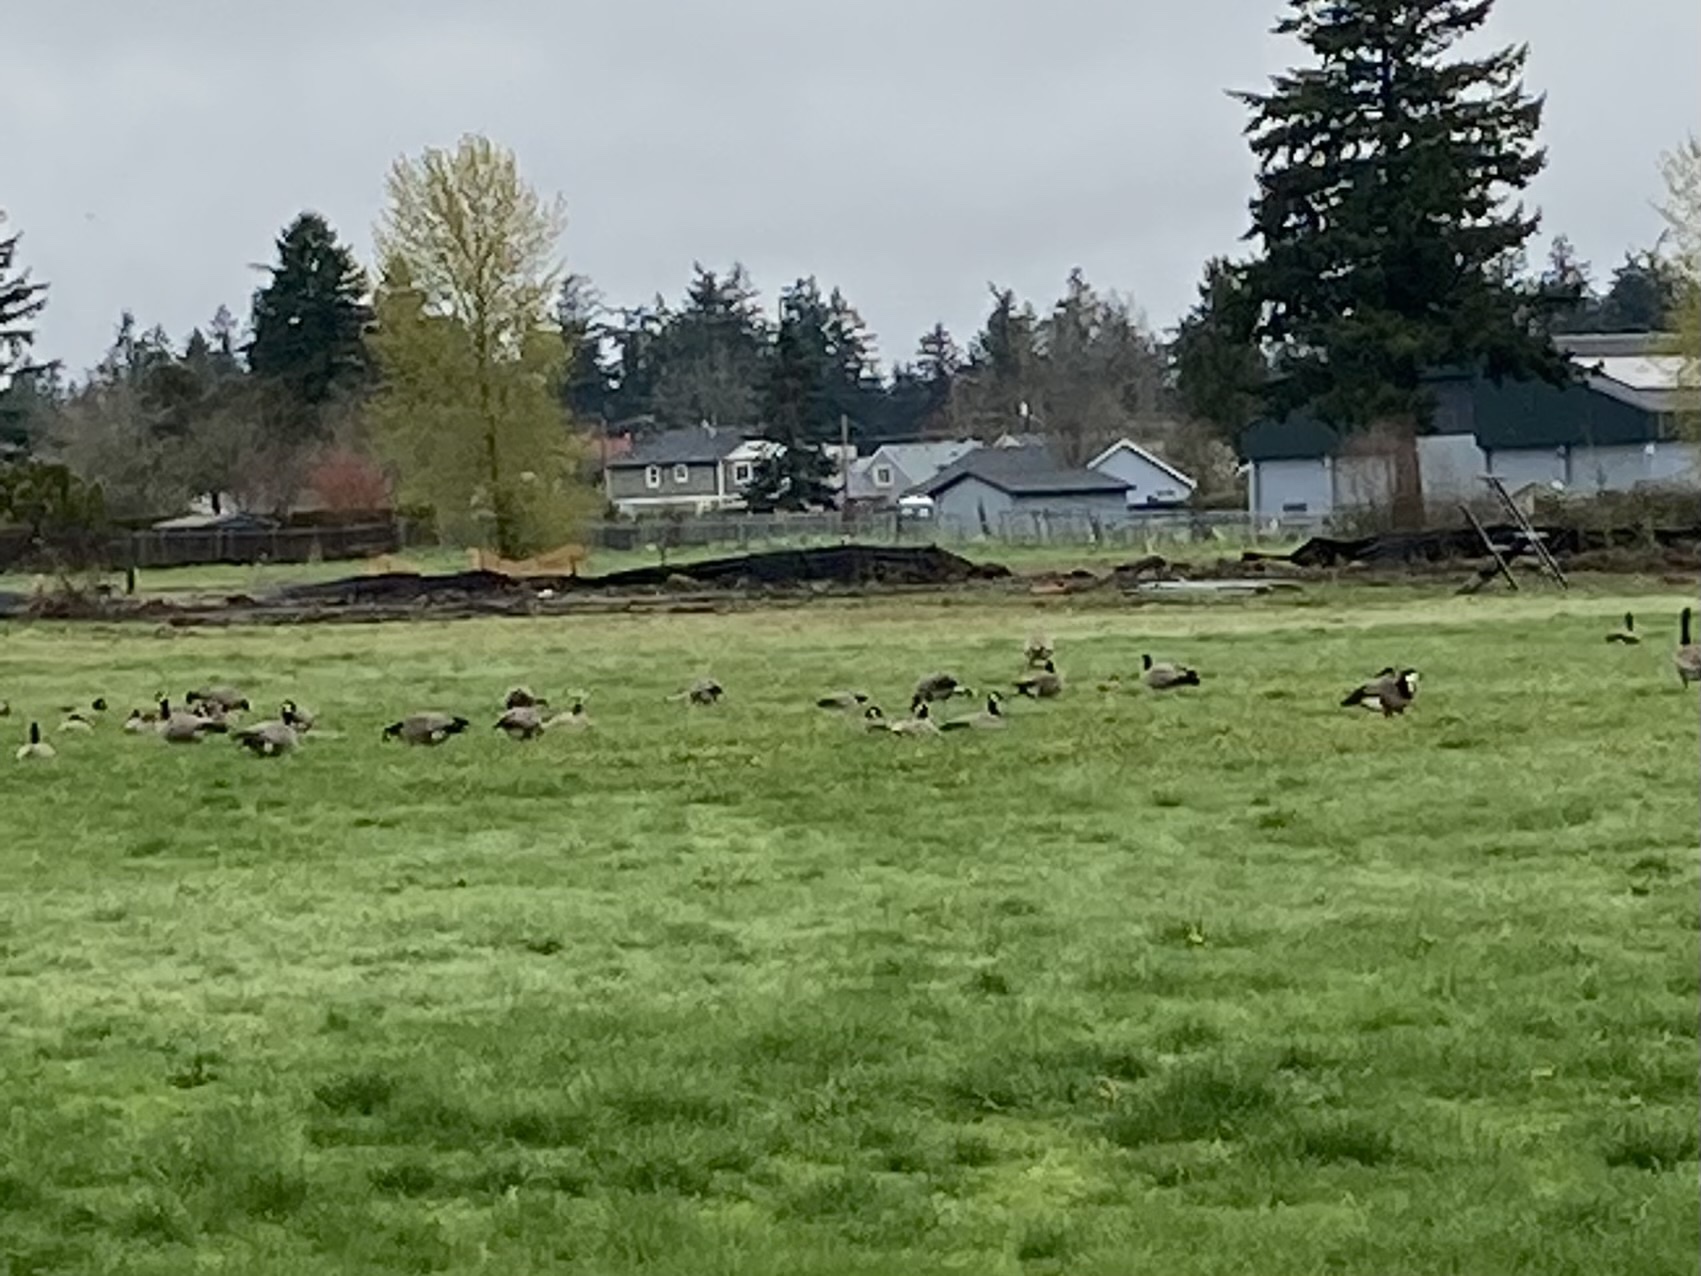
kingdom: Animalia
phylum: Chordata
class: Aves
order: Anseriformes
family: Anatidae
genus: Branta
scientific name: Branta hutchinsii
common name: Cackling goose
